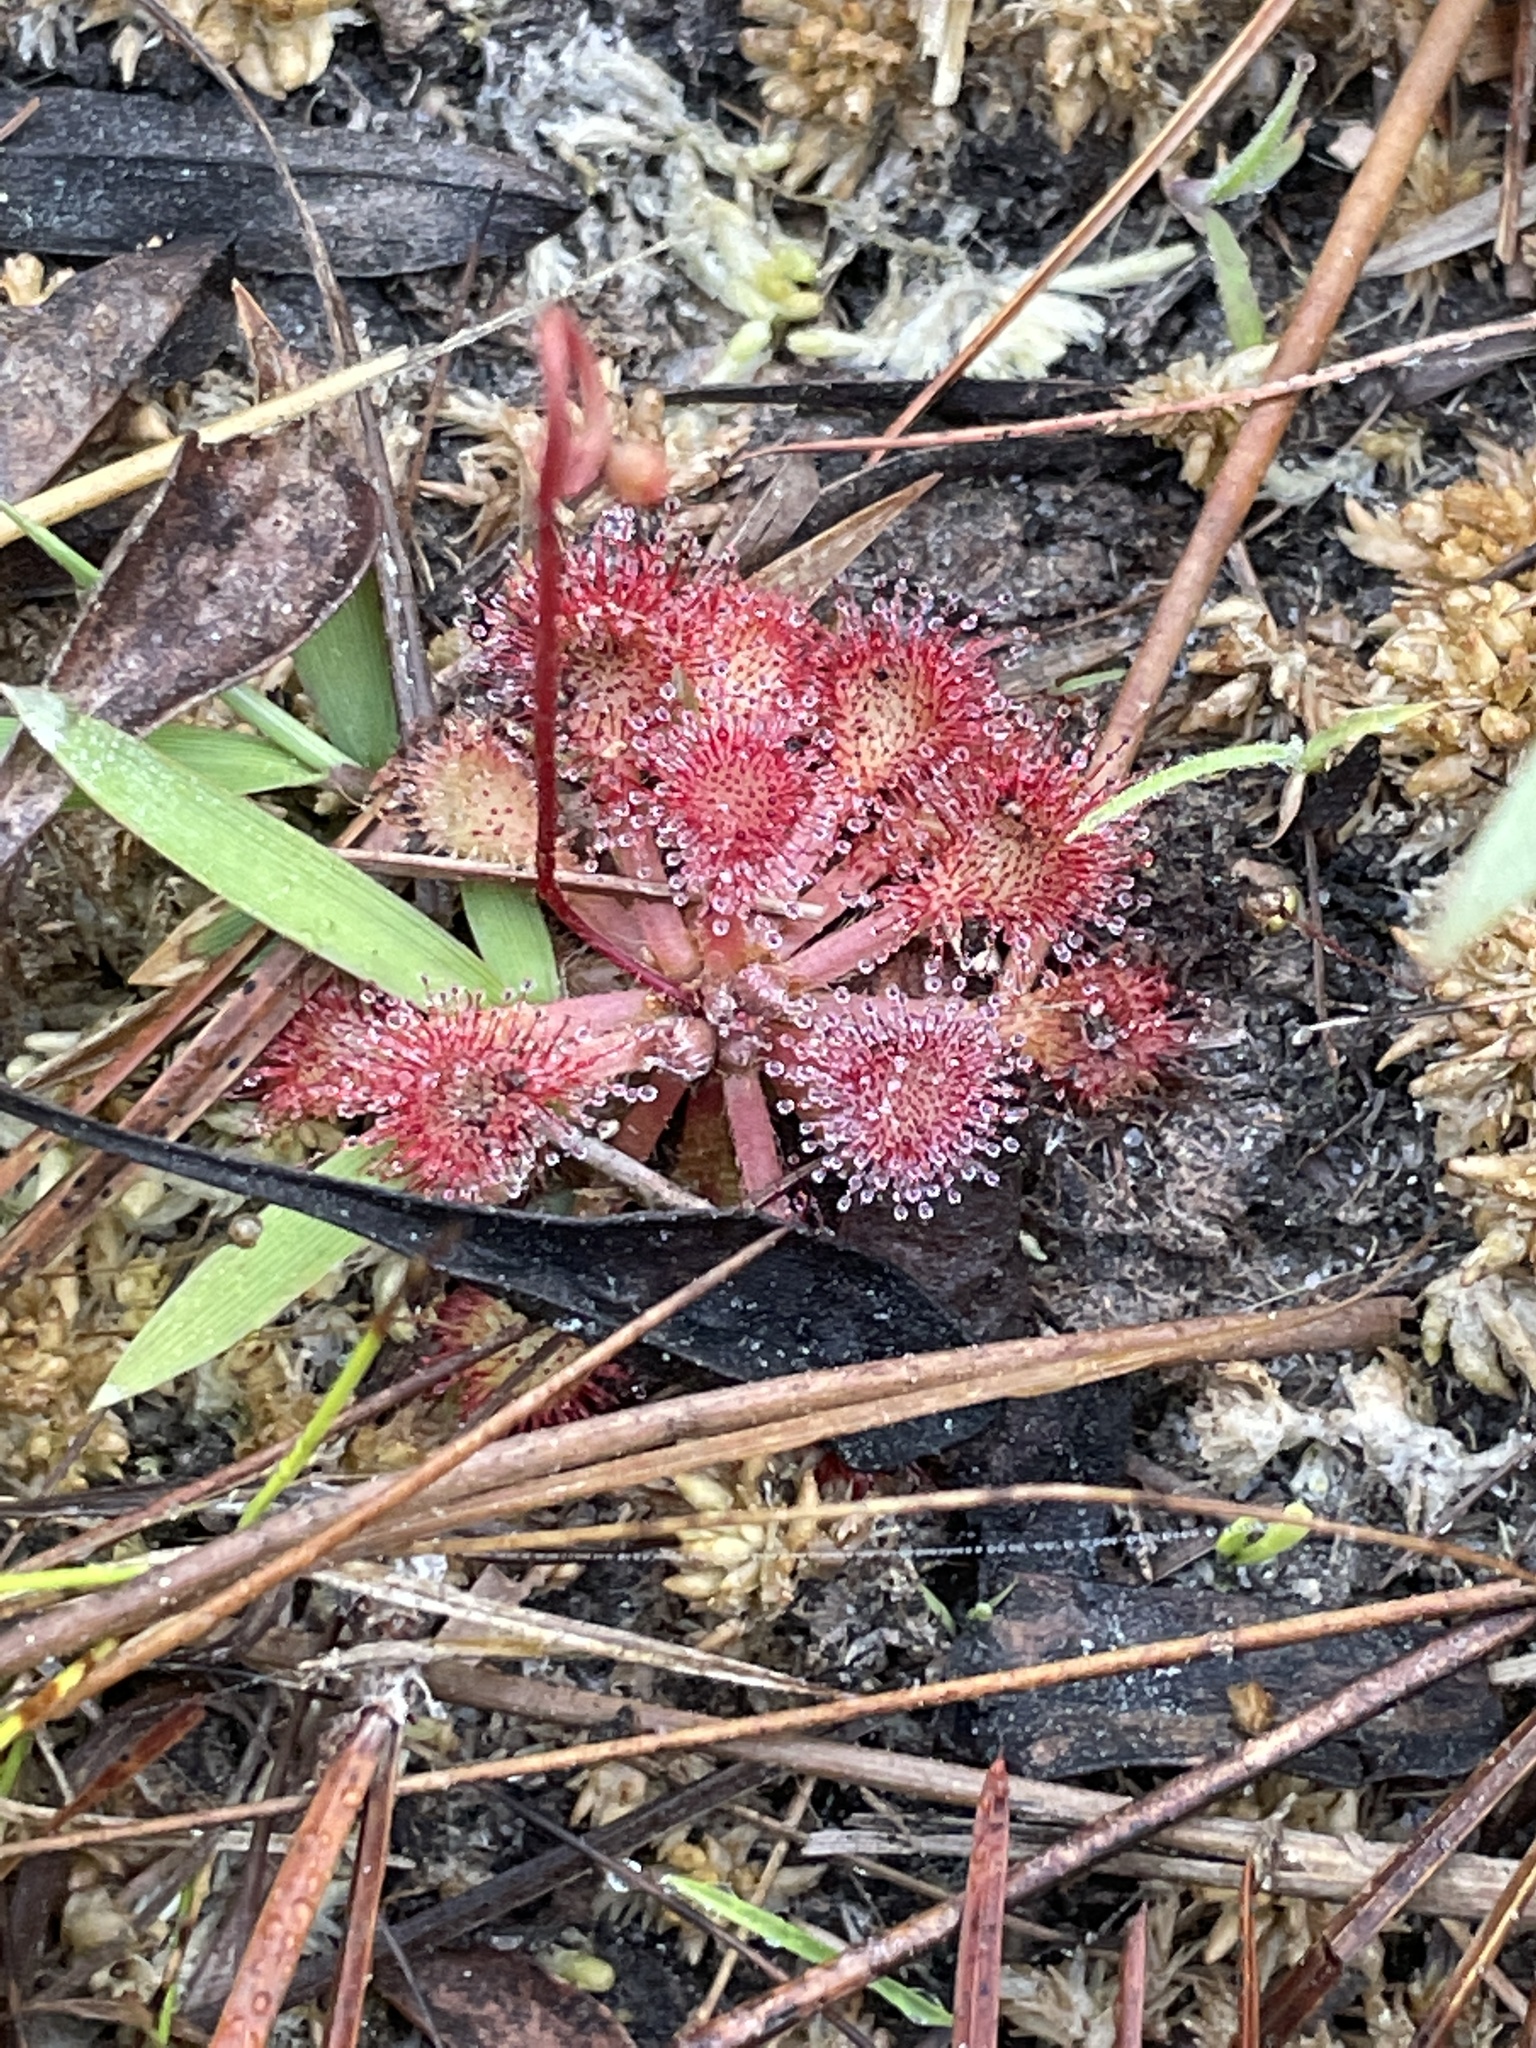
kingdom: Plantae
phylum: Tracheophyta
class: Magnoliopsida
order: Caryophyllales
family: Droseraceae
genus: Drosera
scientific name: Drosera capillaris
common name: Pink sundew
